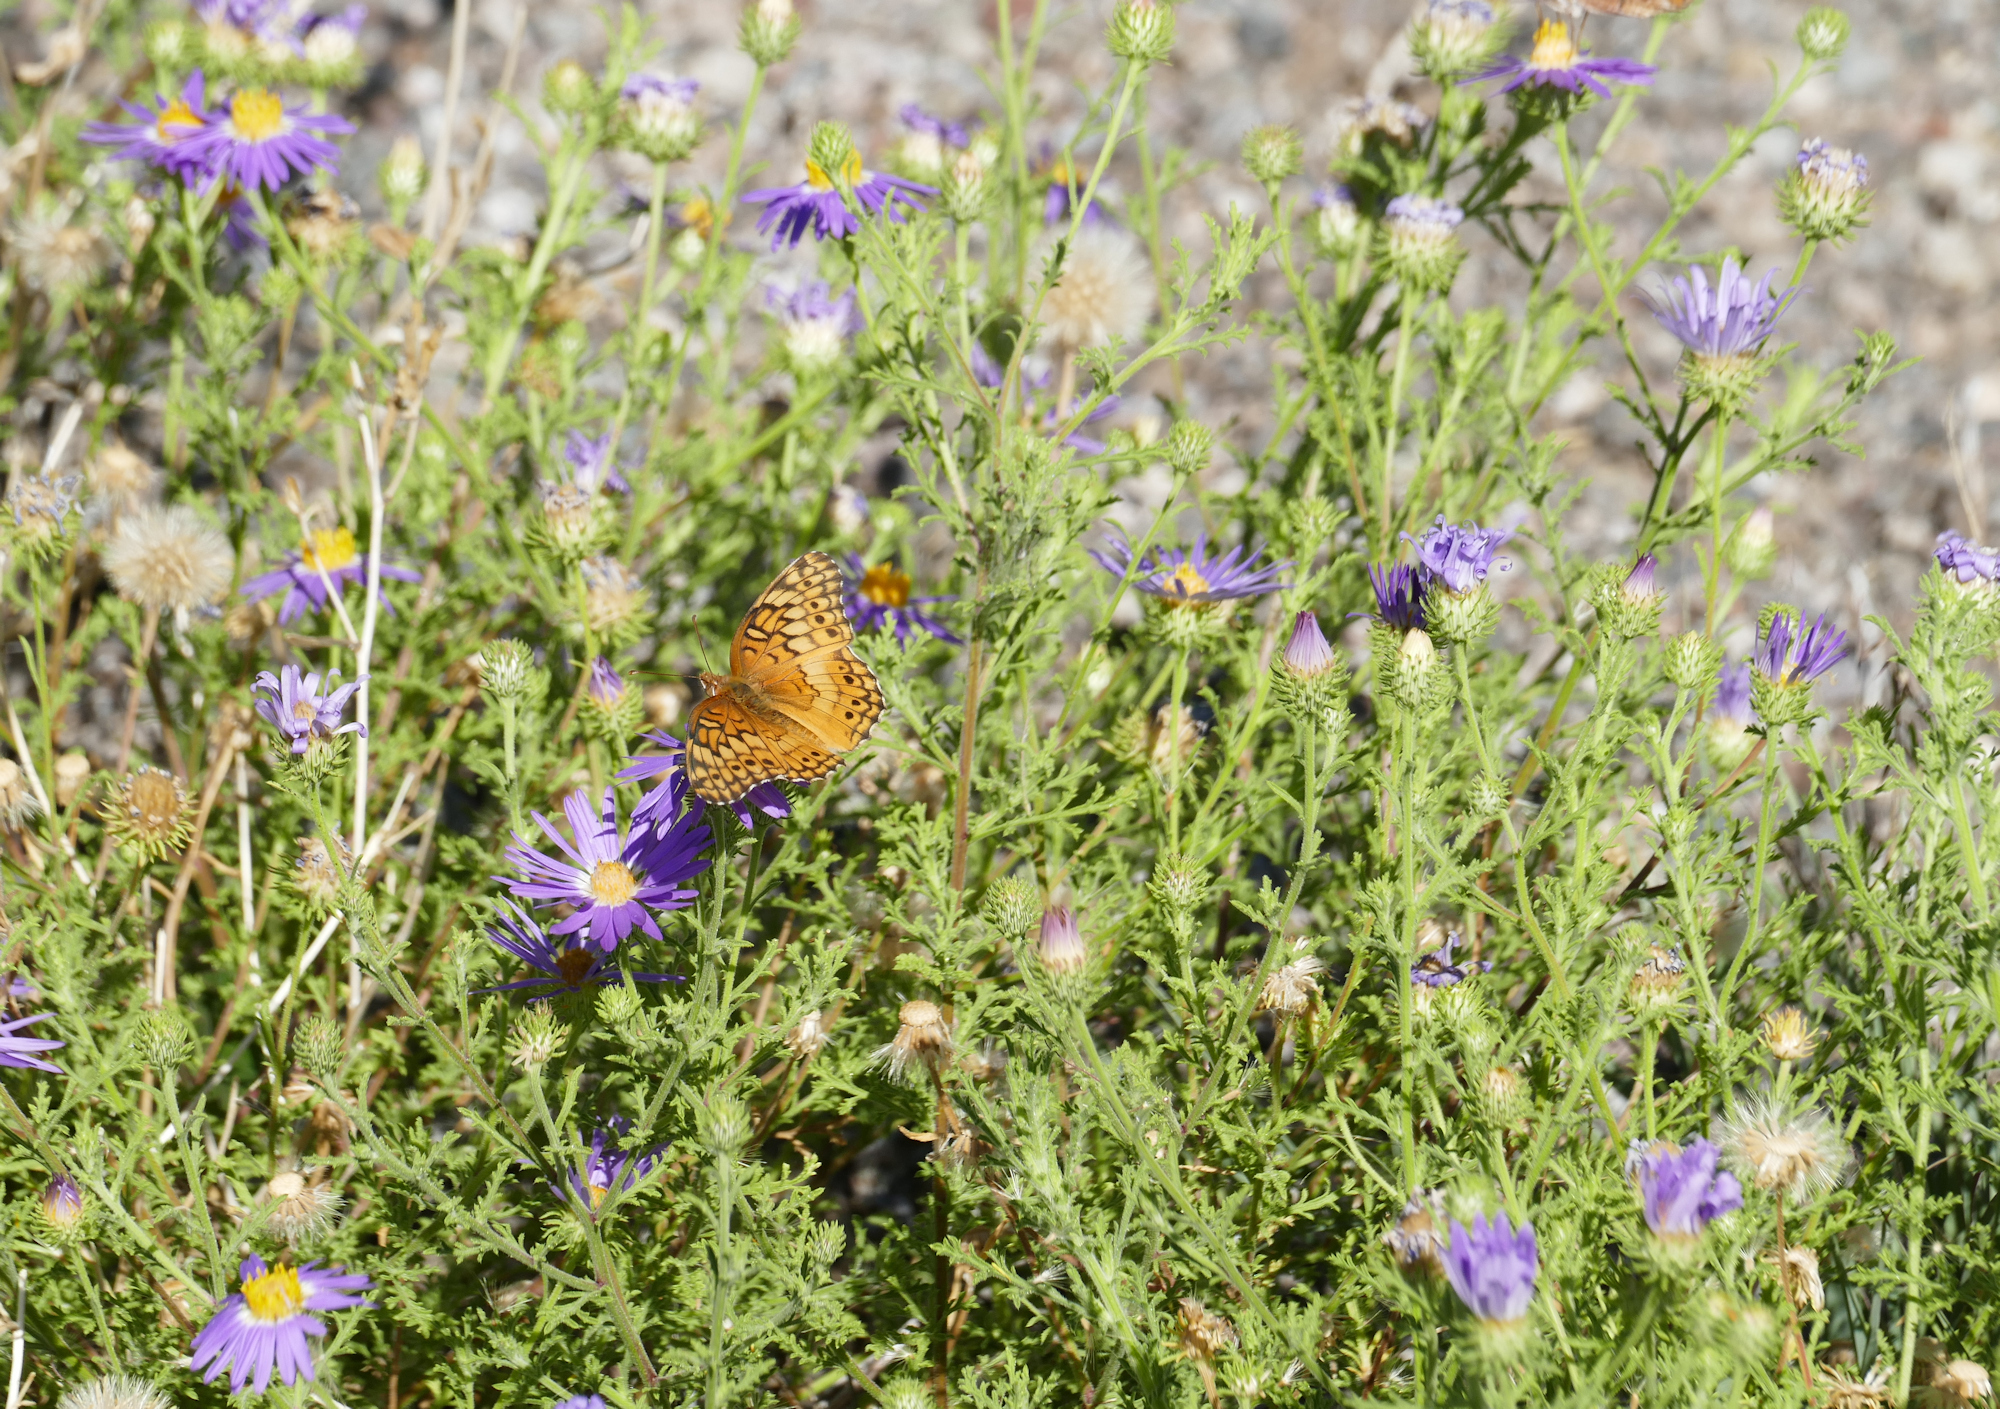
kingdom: Plantae
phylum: Tracheophyta
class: Magnoliopsida
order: Asterales
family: Asteraceae
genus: Machaeranthera
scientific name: Machaeranthera tanacetifolia
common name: Tansy-aster
